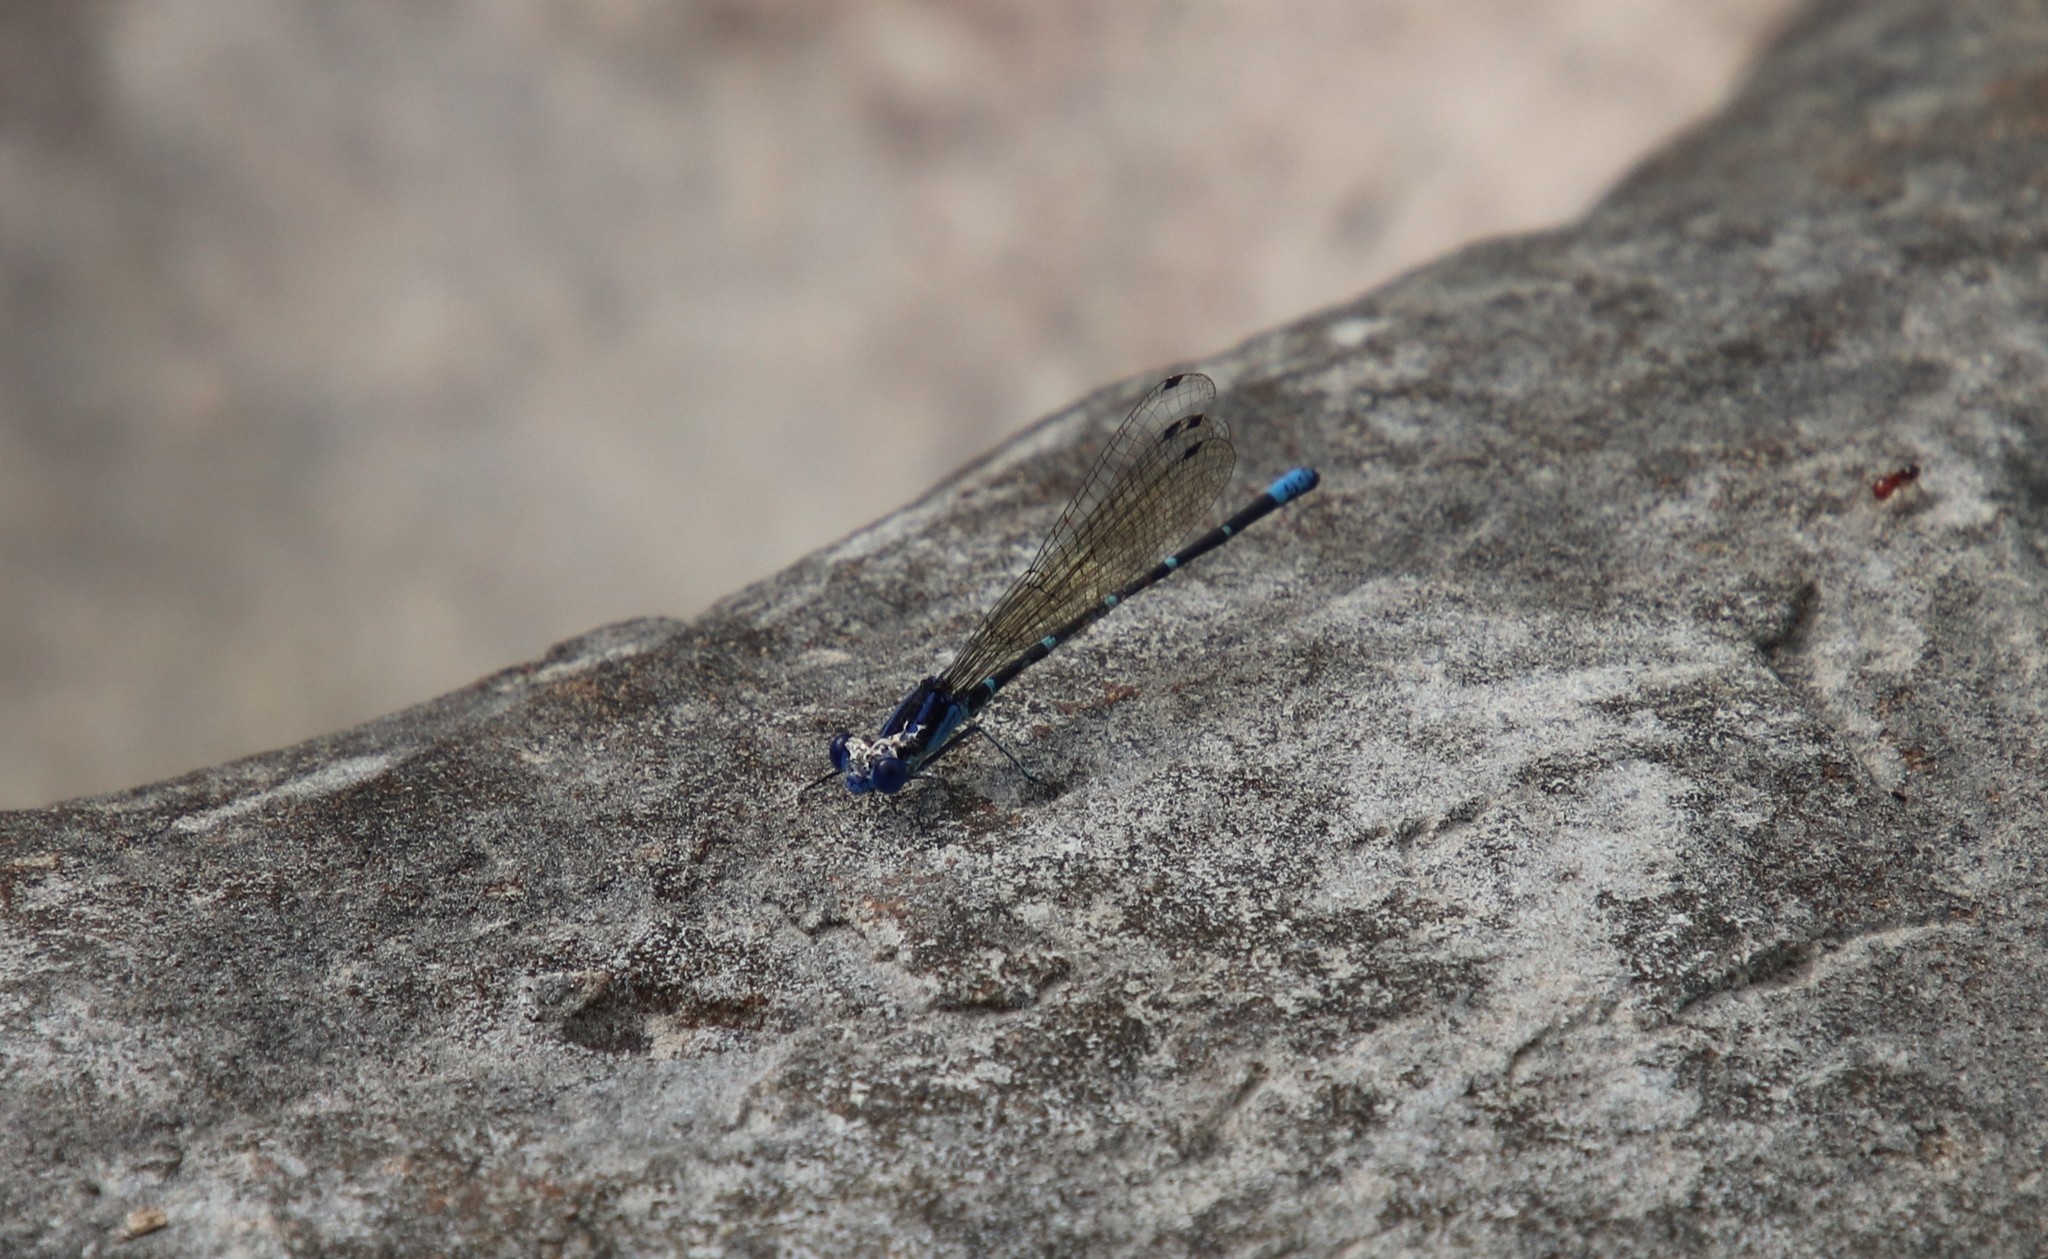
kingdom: Animalia
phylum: Arthropoda
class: Insecta
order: Odonata
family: Coenagrionidae
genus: Argia
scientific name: Argia sedula
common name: Blue-ringed dancer
